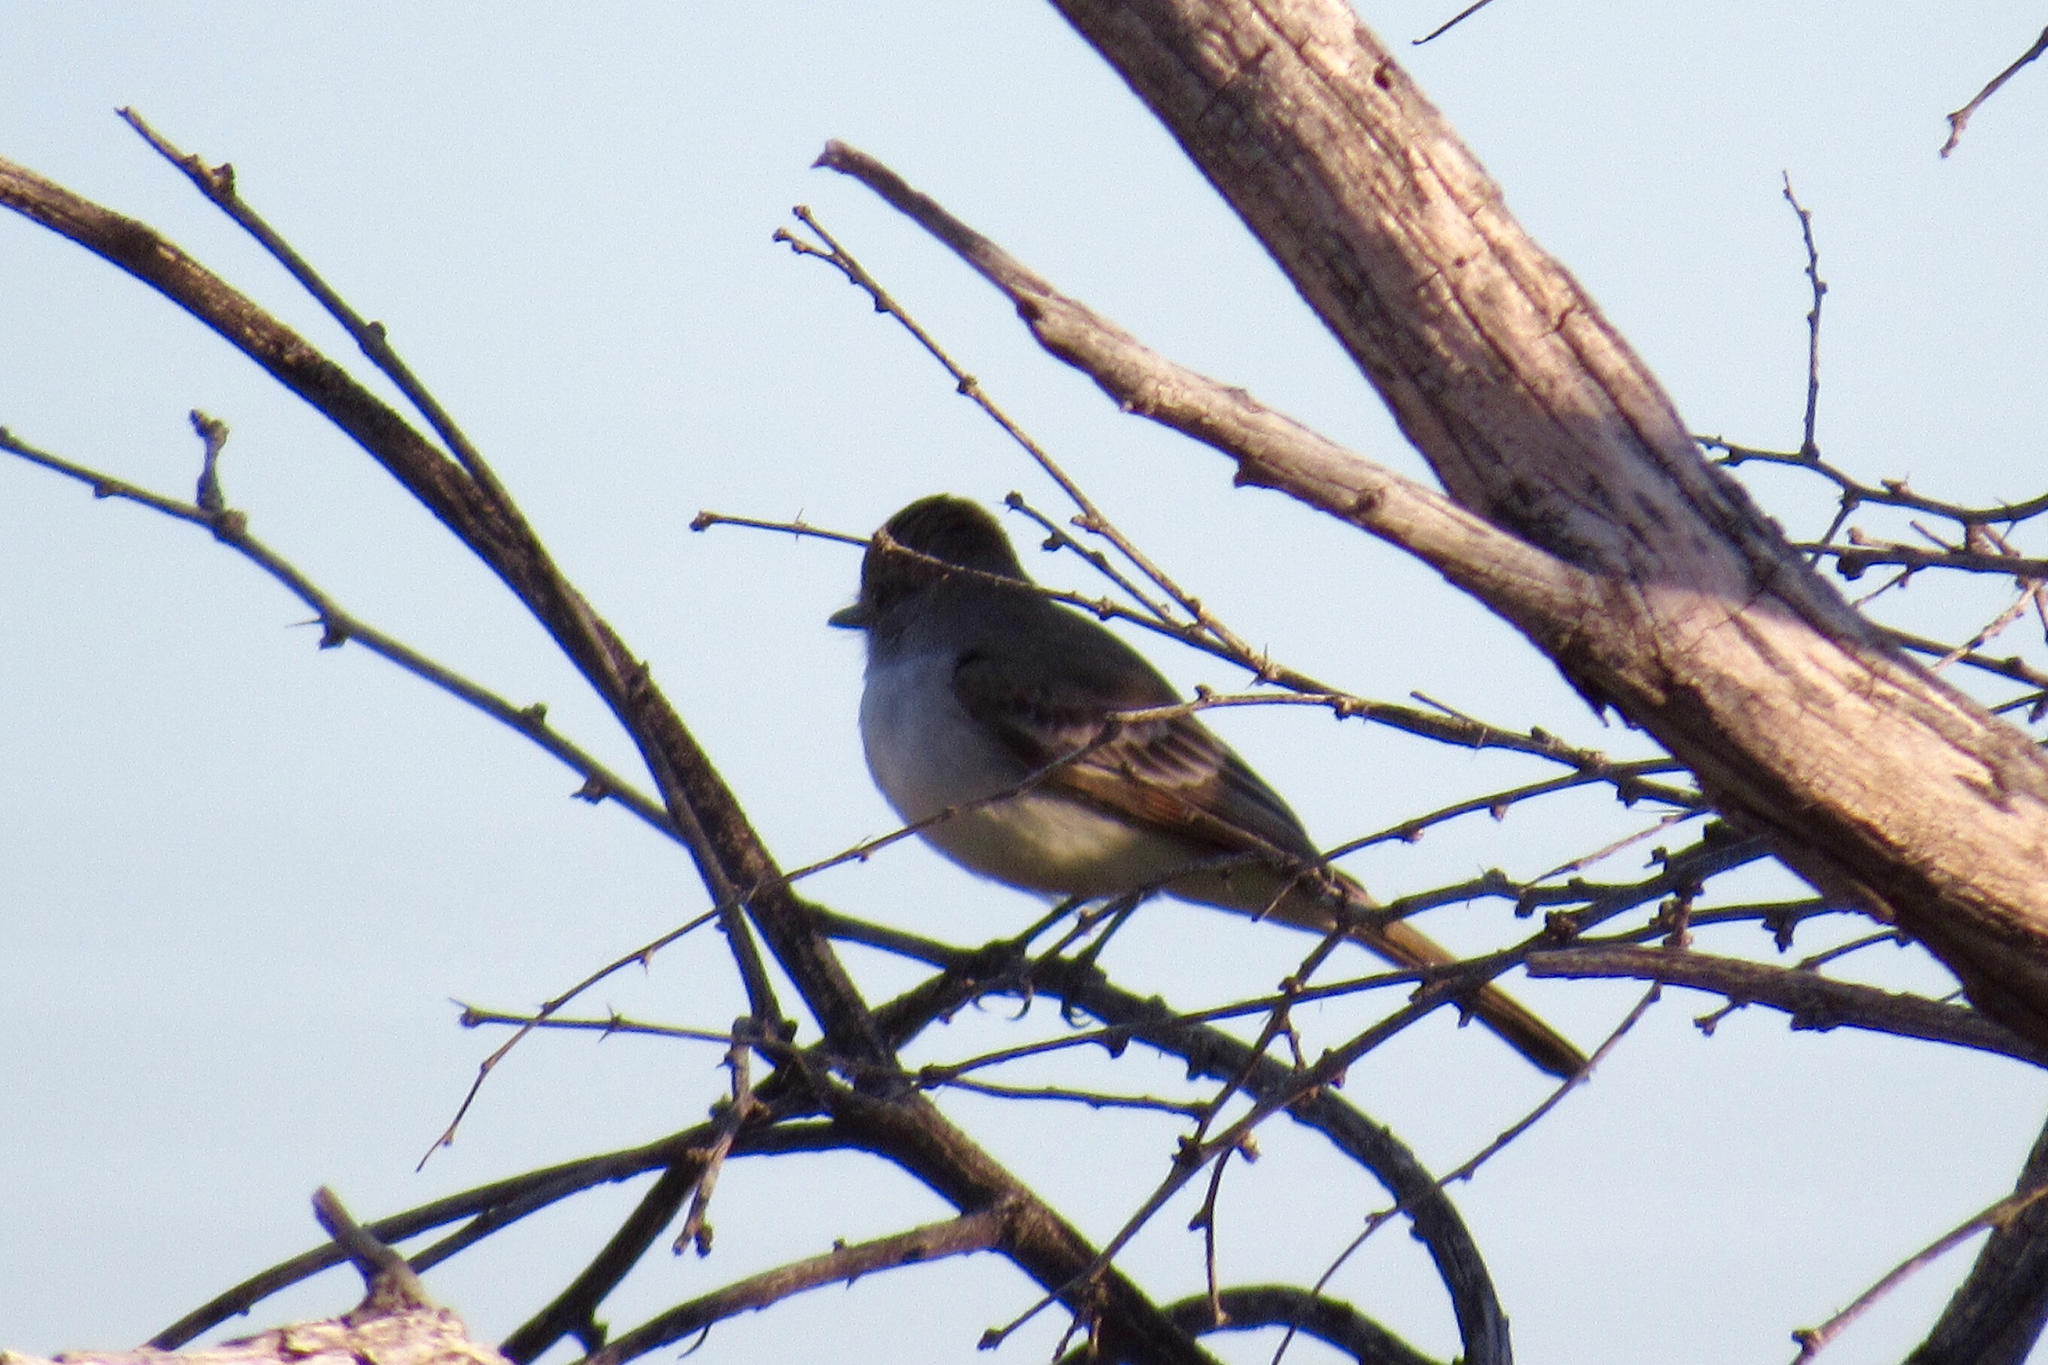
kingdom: Animalia
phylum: Chordata
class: Aves
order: Passeriformes
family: Tyrannidae
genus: Myiarchus
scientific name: Myiarchus cinerascens
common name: Ash-throated flycatcher
